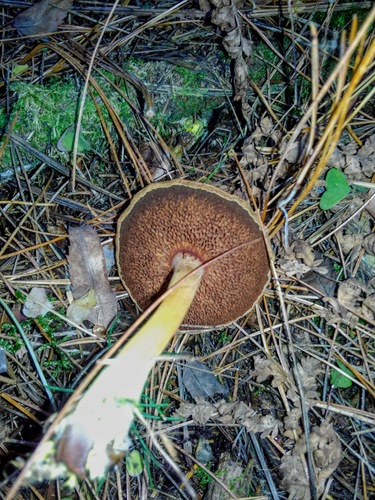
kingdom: Fungi
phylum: Basidiomycota
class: Agaricomycetes
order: Boletales
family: Boletaceae
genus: Chalciporus
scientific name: Chalciporus piperatus
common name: Peppery bolete
